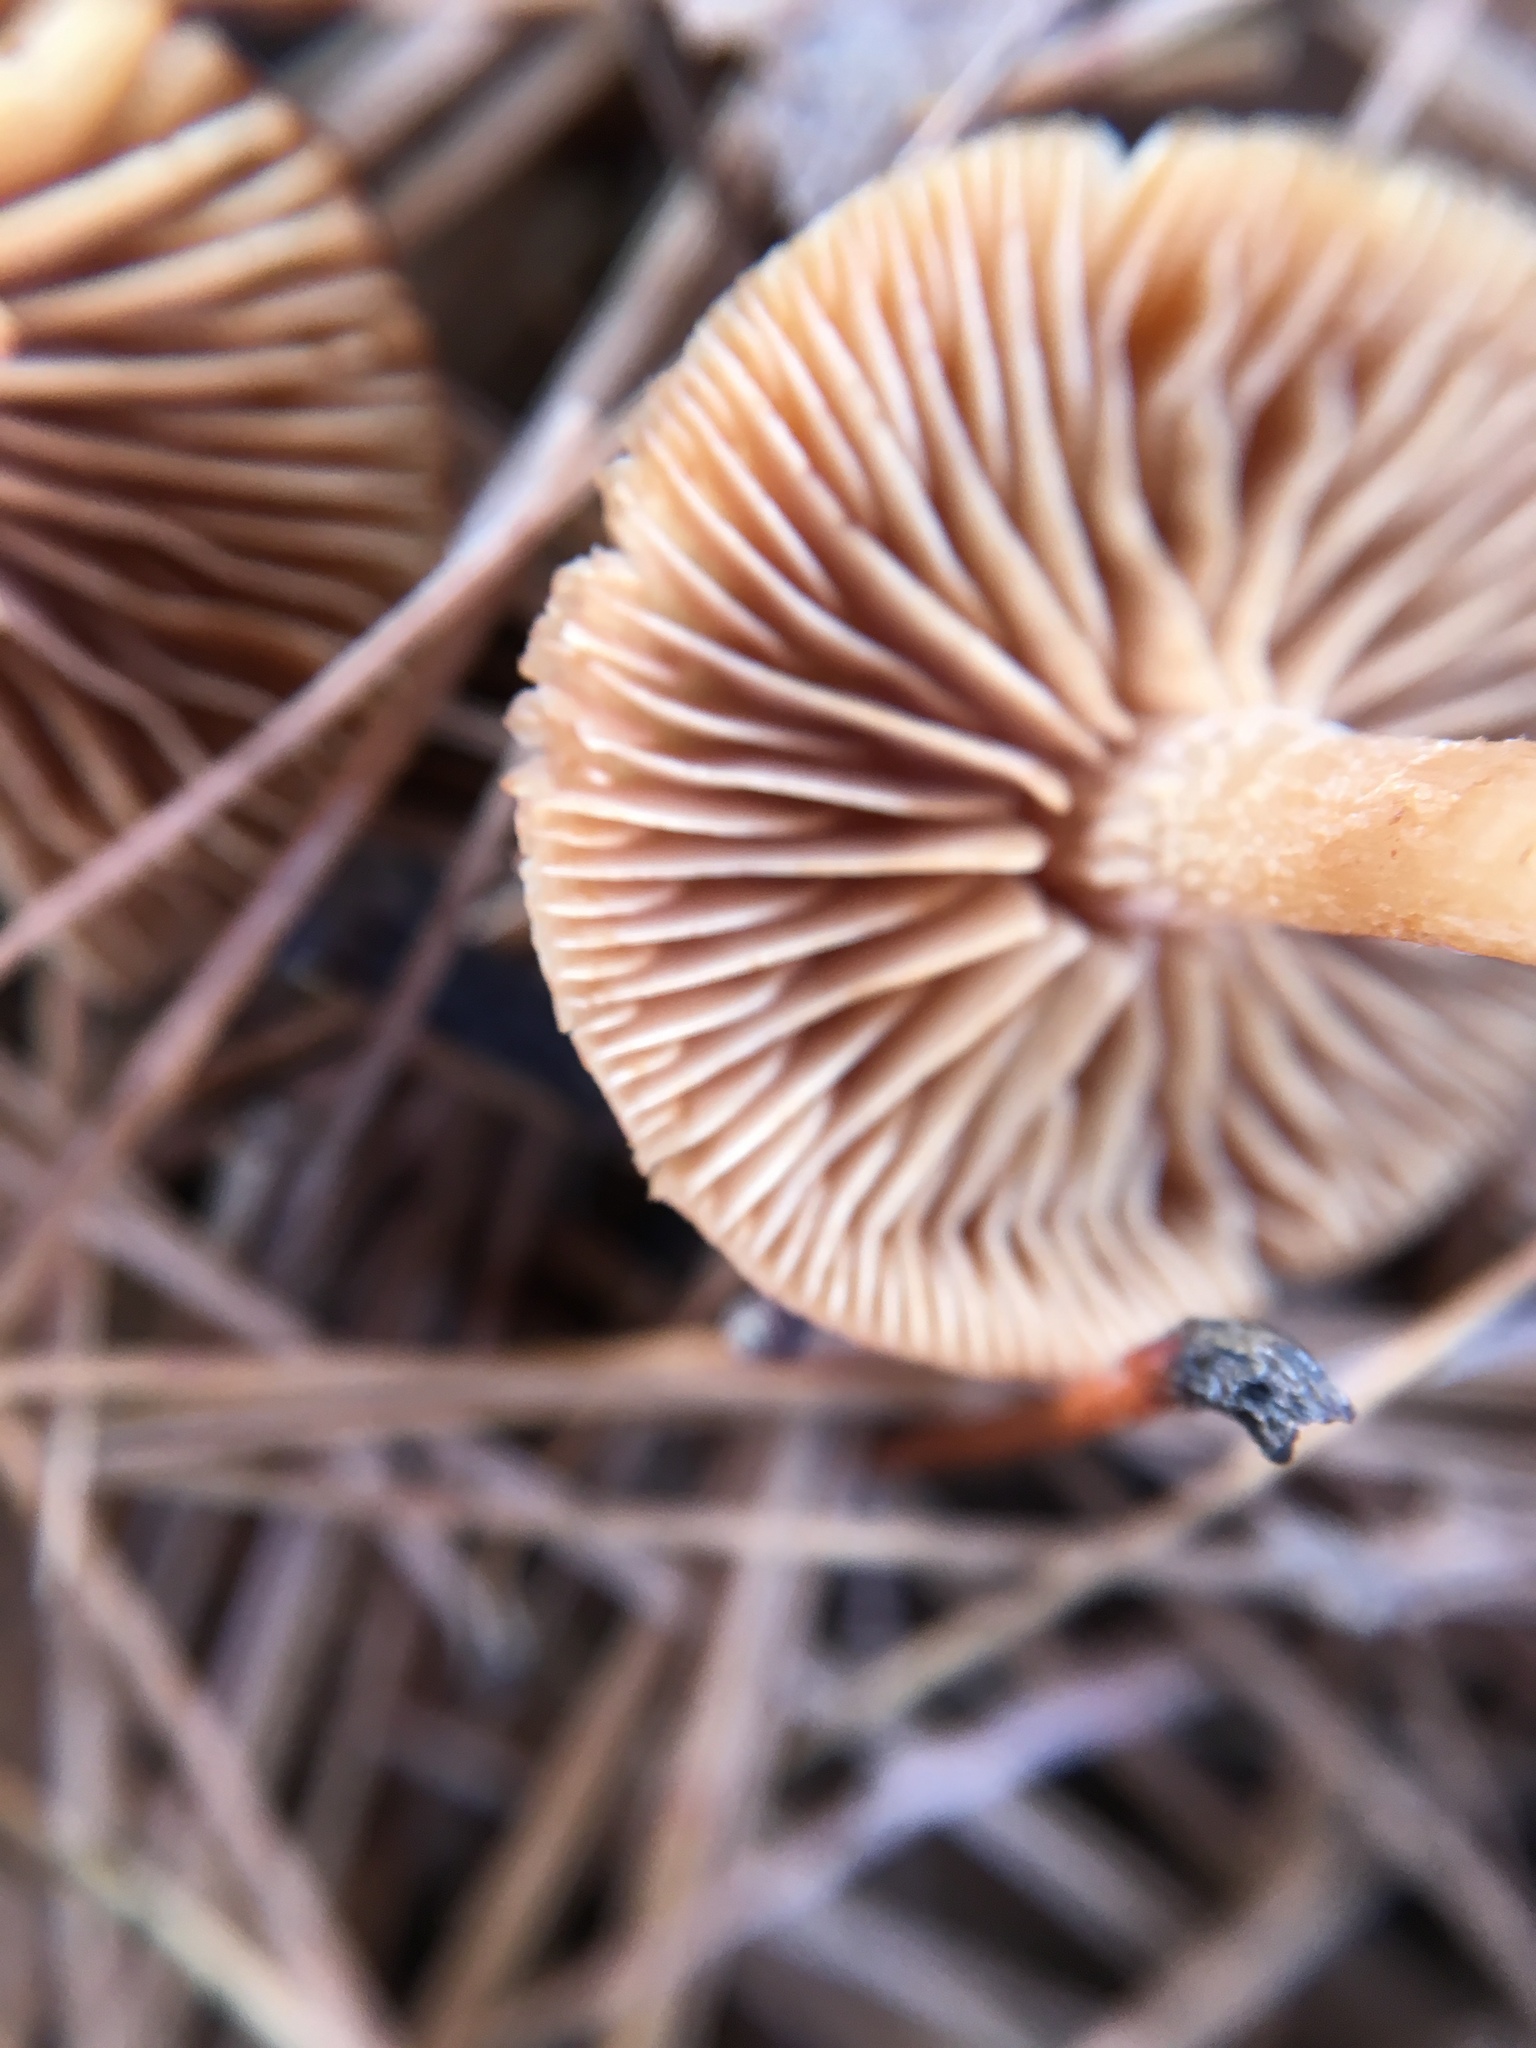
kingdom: Fungi
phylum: Basidiomycota
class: Agaricomycetes
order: Agaricales
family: Tubariaceae
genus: Tubaria
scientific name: Tubaria furfuracea
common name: Scurfy twiglet
